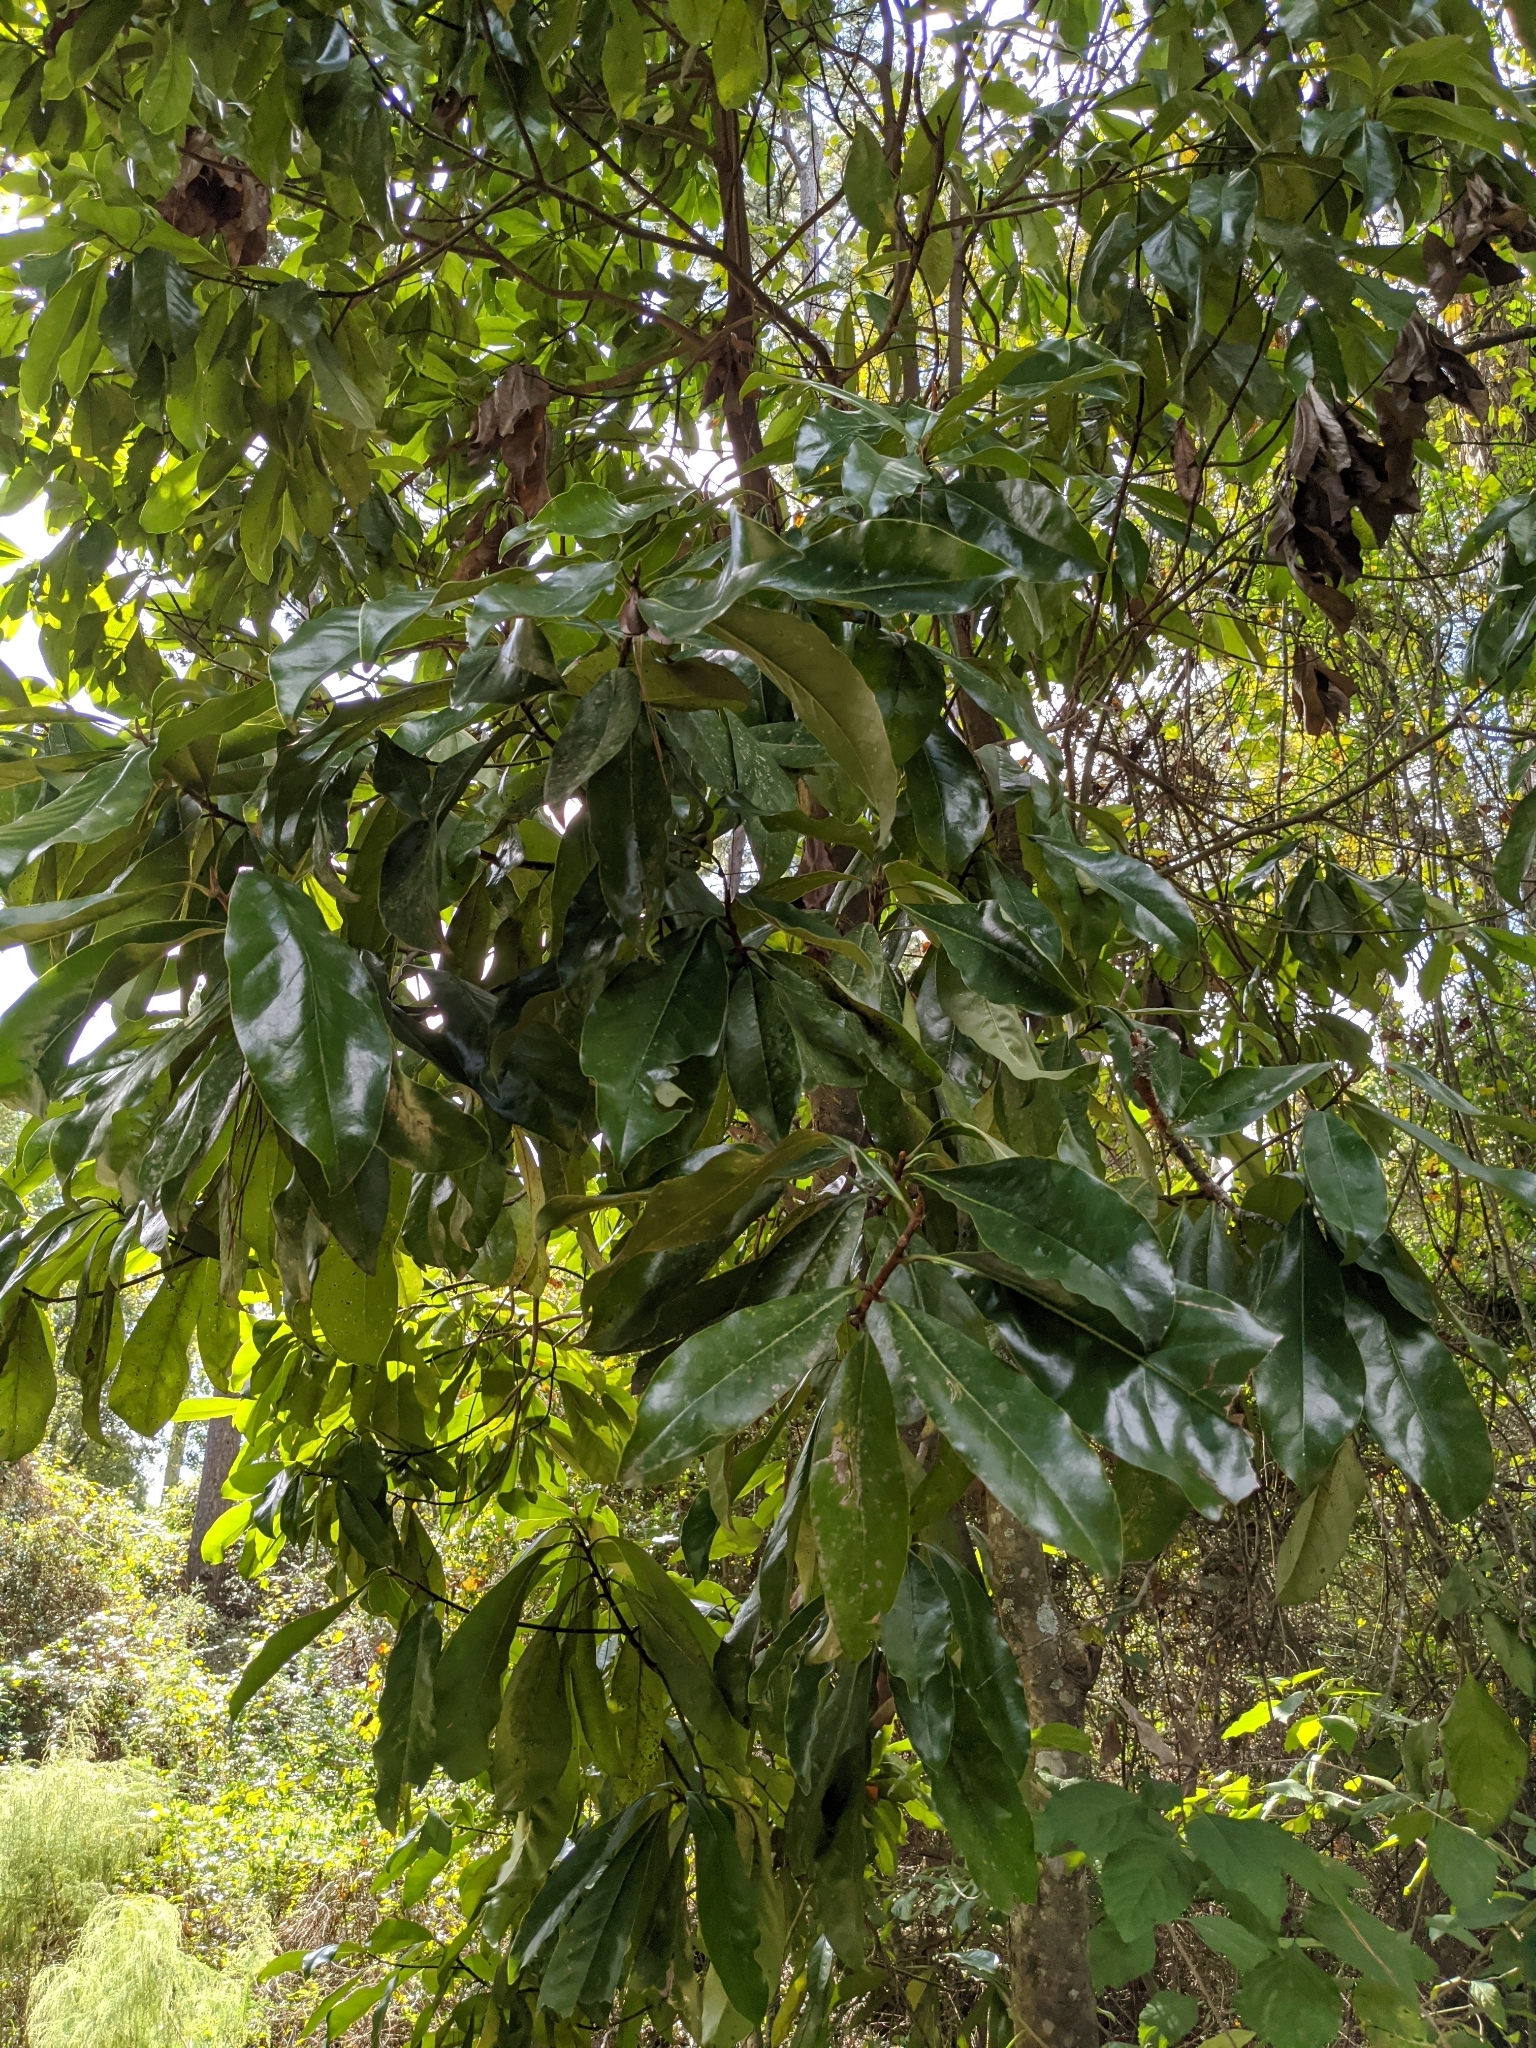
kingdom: Plantae
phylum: Tracheophyta
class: Magnoliopsida
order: Magnoliales
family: Magnoliaceae
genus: Magnolia
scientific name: Magnolia grandiflora
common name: Southern magnolia
